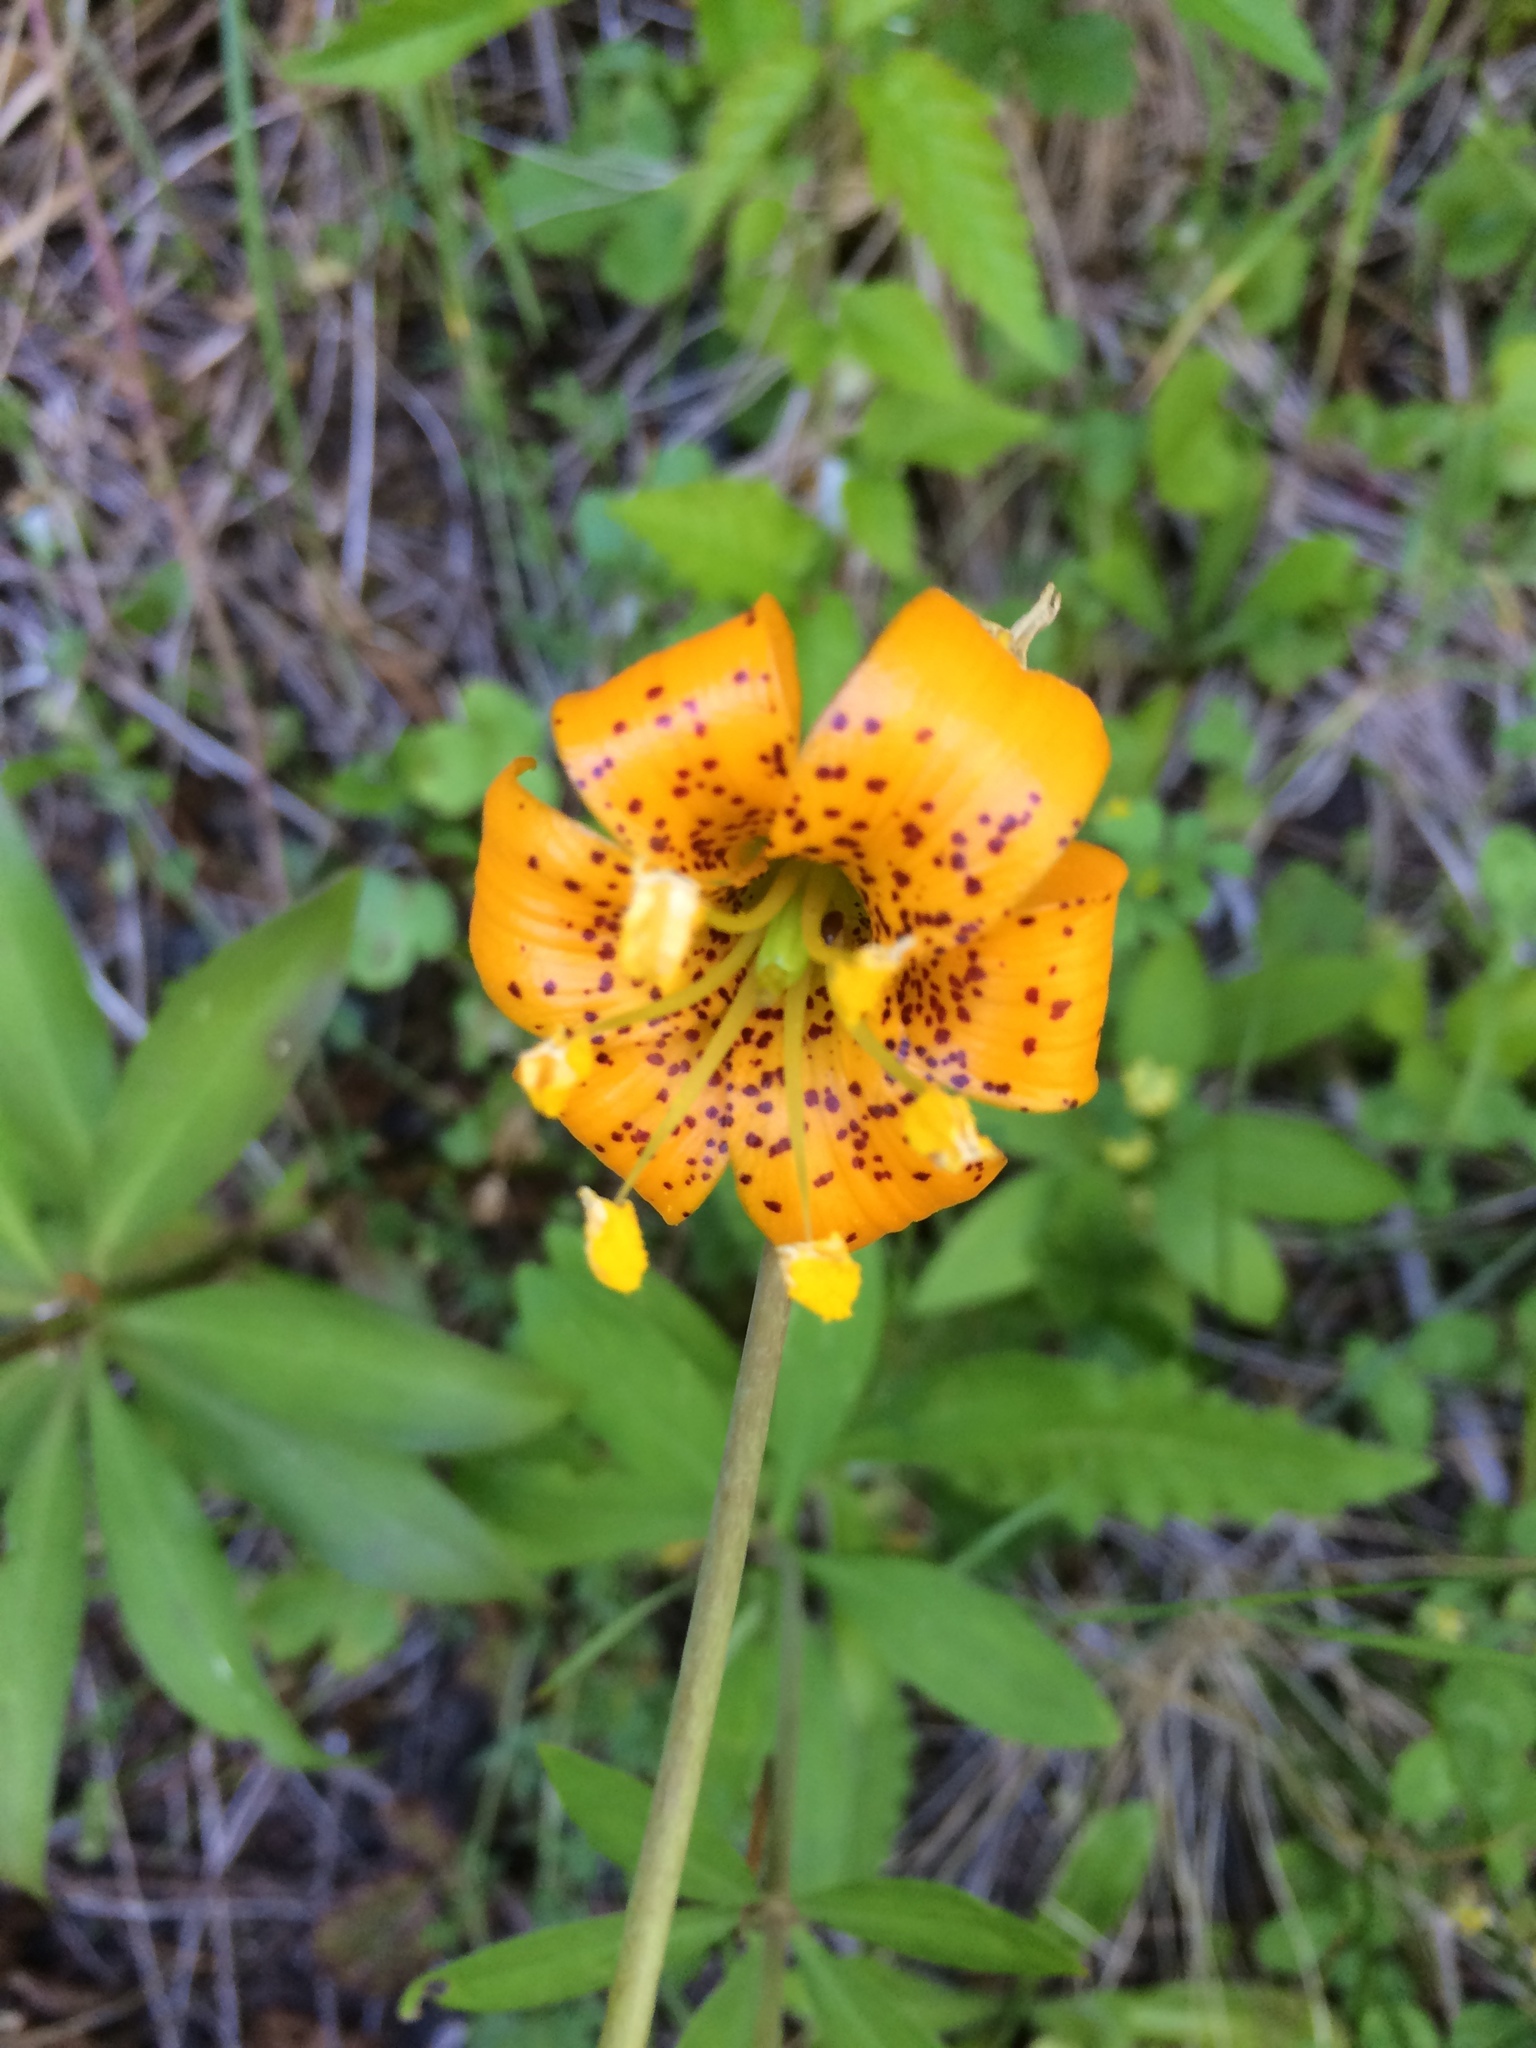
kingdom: Plantae
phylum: Tracheophyta
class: Liliopsida
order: Liliales
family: Liliaceae
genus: Lilium
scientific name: Lilium columbianum
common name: Columbia lily
